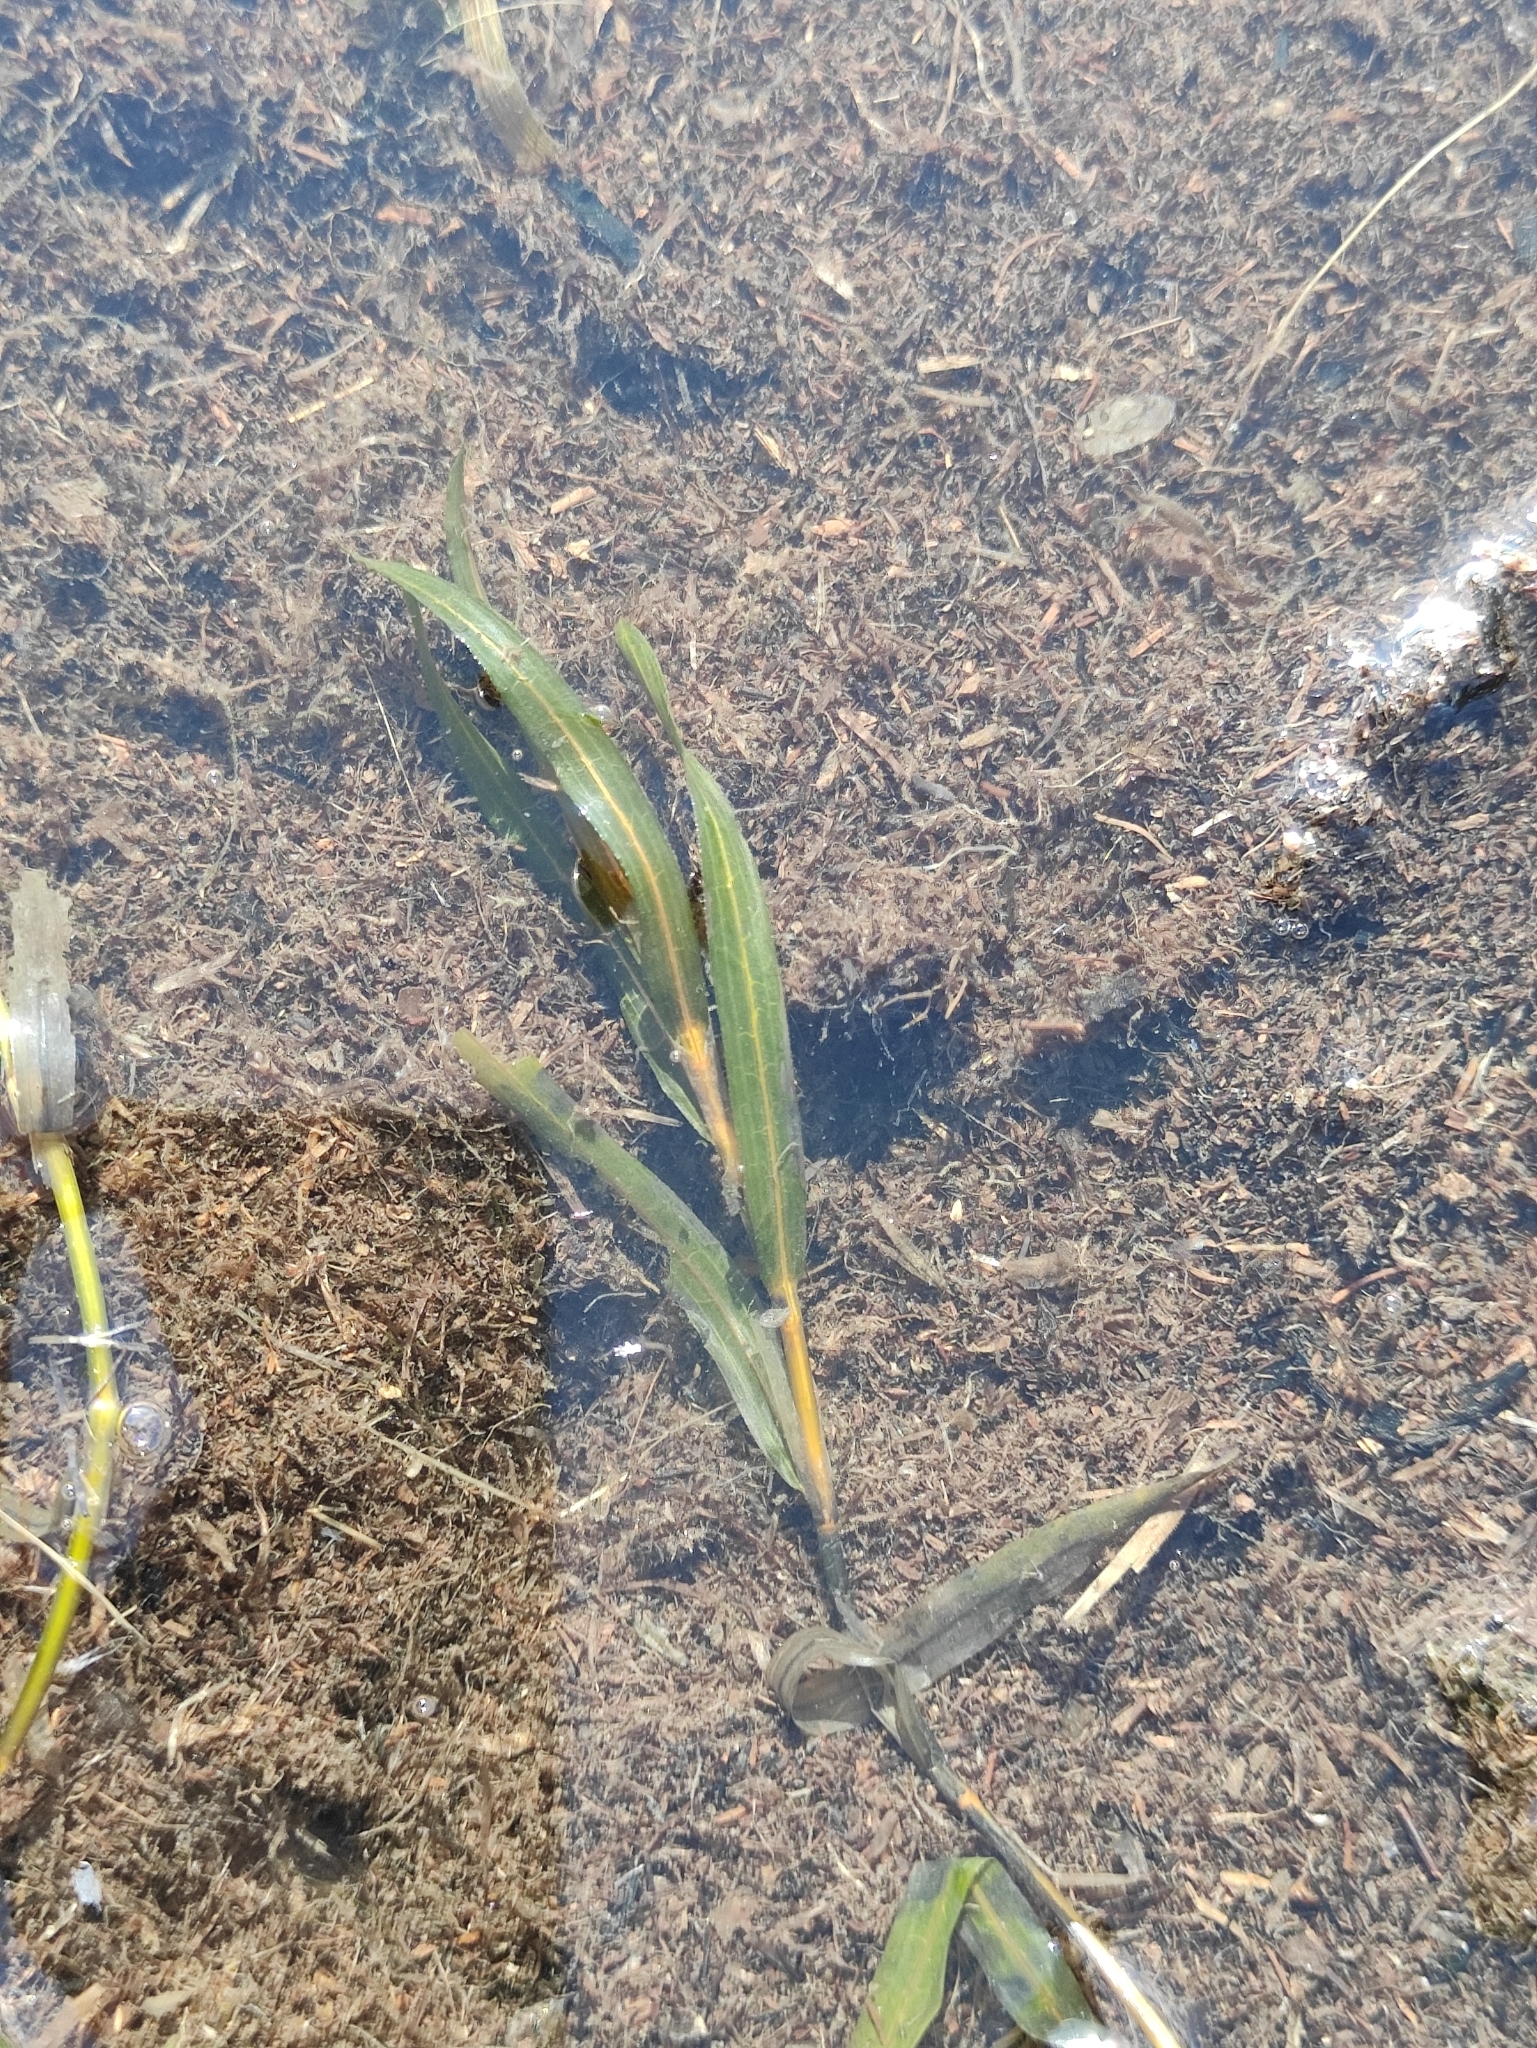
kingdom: Plantae
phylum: Tracheophyta
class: Liliopsida
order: Alismatales
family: Potamogetonaceae
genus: Potamogeton
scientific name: Potamogeton crispus
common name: Curled pondweed
